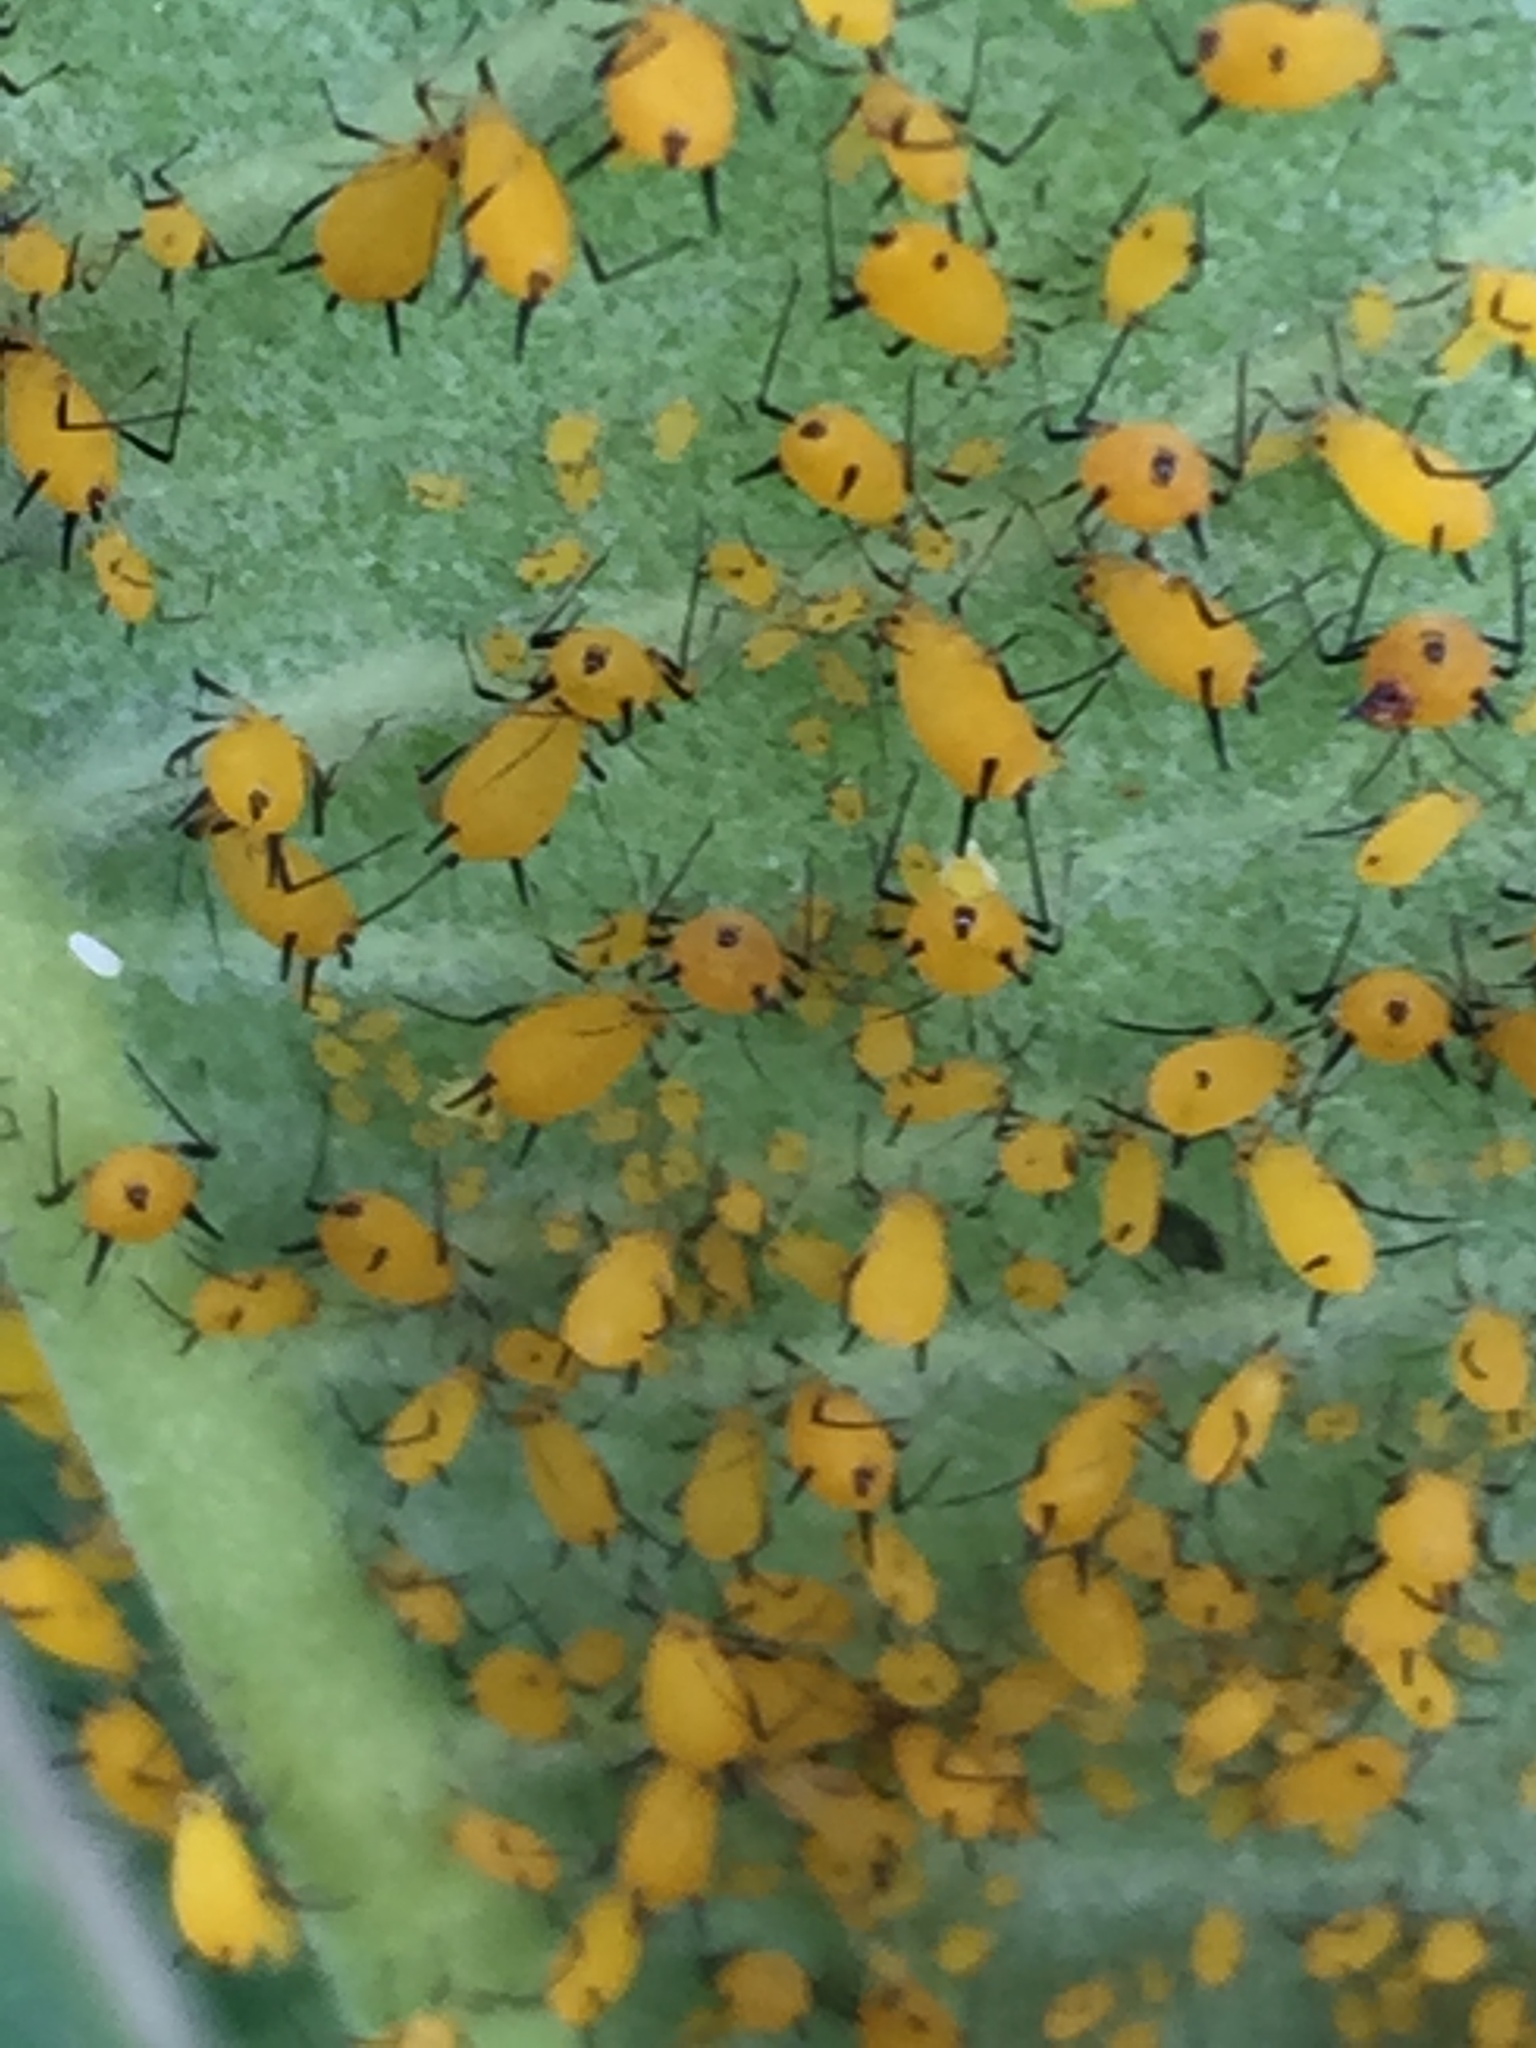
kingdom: Animalia
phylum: Arthropoda
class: Insecta
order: Hemiptera
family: Aphididae
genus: Aphis
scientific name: Aphis nerii
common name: Oleander aphid
